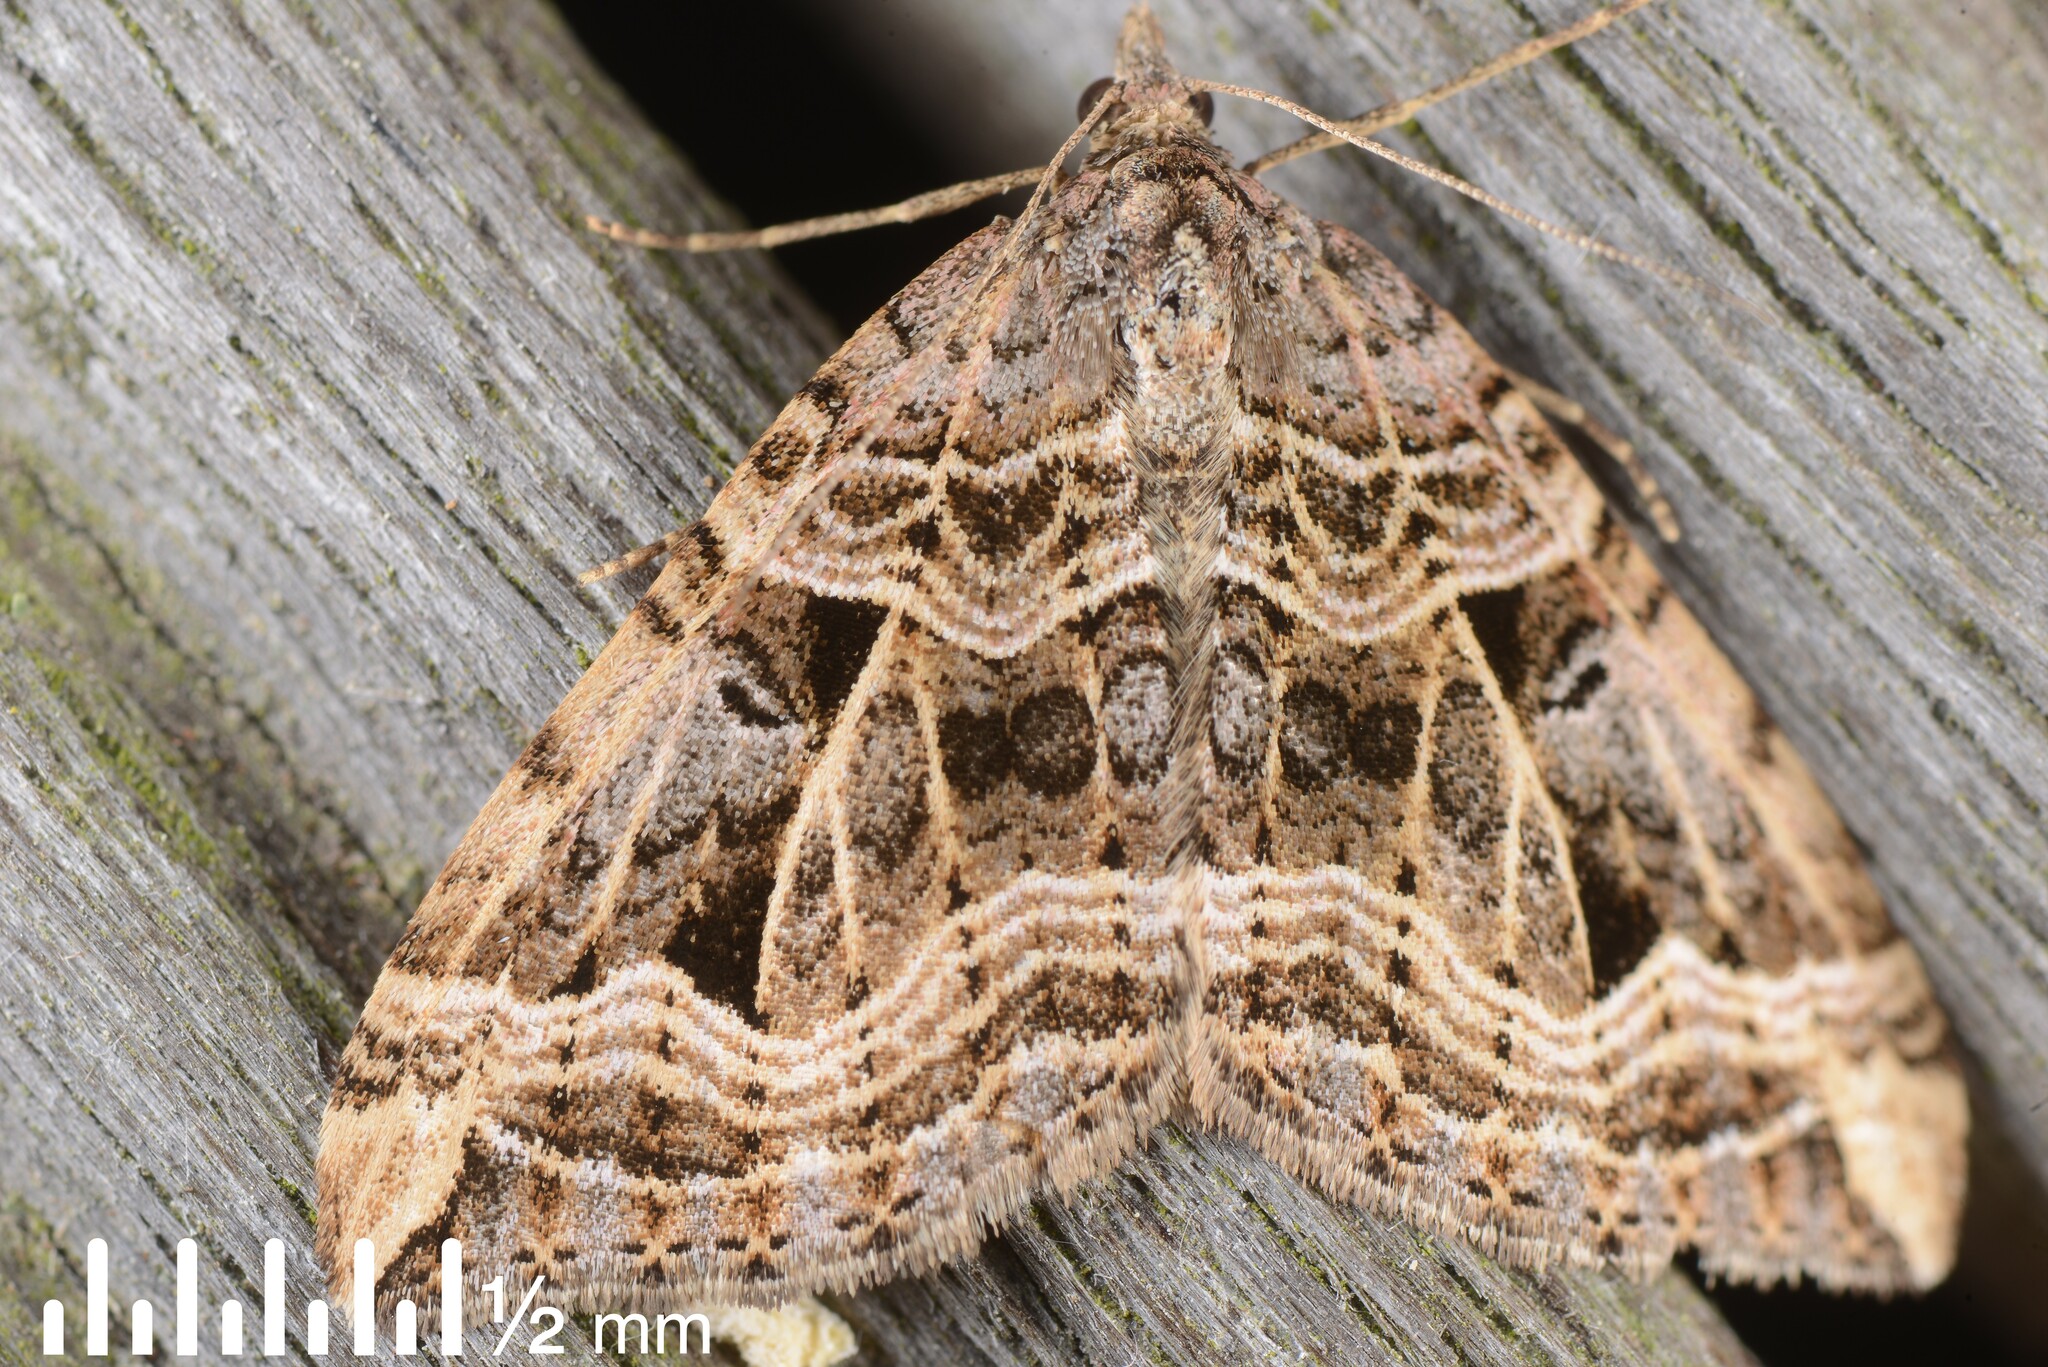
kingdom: Animalia
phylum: Arthropoda
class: Insecta
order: Lepidoptera
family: Geometridae
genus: Xanthorhoe
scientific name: Xanthorhoe semifissata
